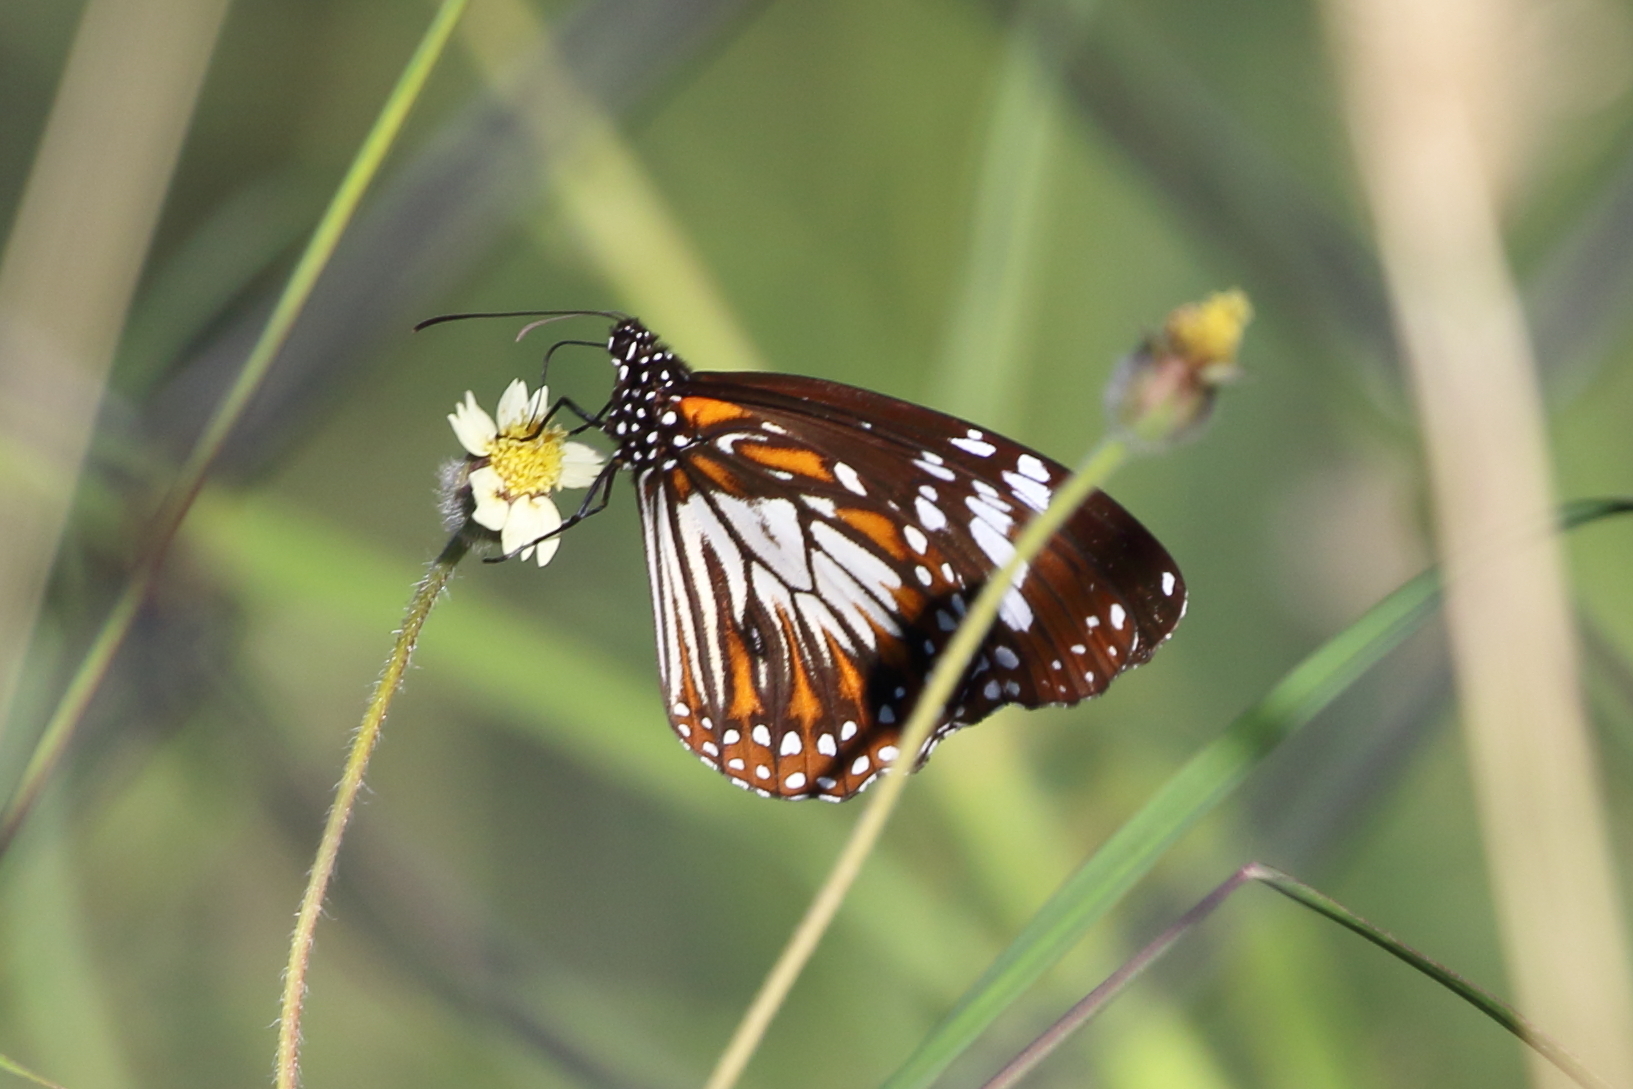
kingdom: Animalia
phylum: Arthropoda
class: Insecta
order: Lepidoptera
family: Nymphalidae
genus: Danaus
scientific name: Danaus affinis
